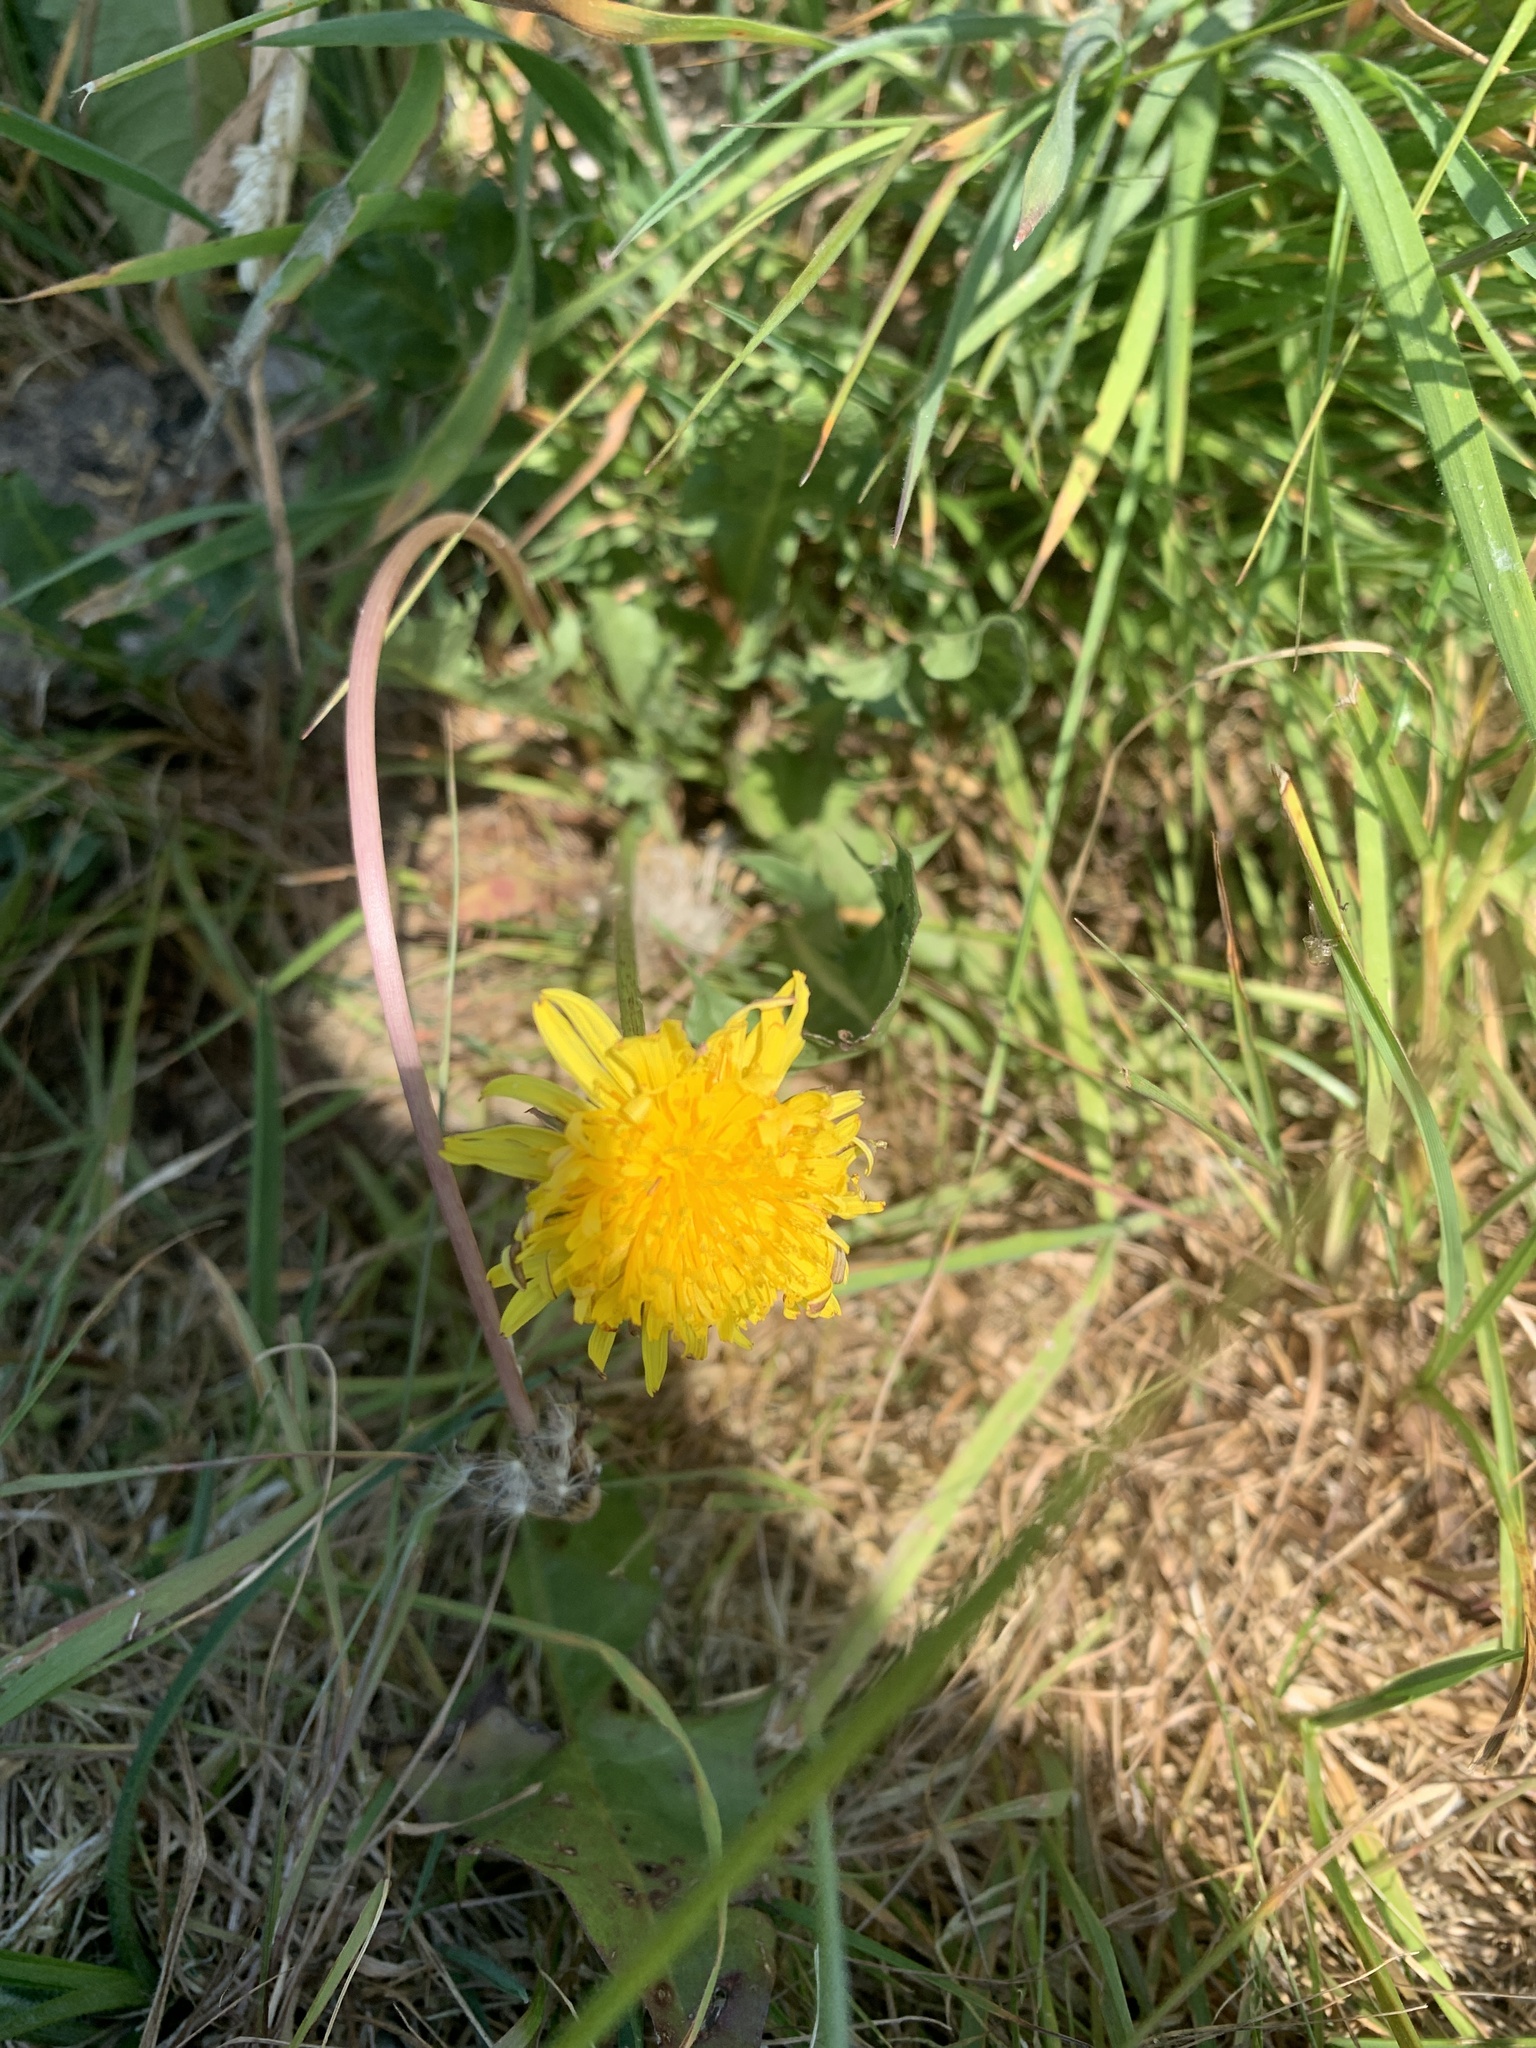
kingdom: Plantae
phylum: Tracheophyta
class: Magnoliopsida
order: Asterales
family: Asteraceae
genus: Taraxacum
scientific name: Taraxacum officinale
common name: Common dandelion
